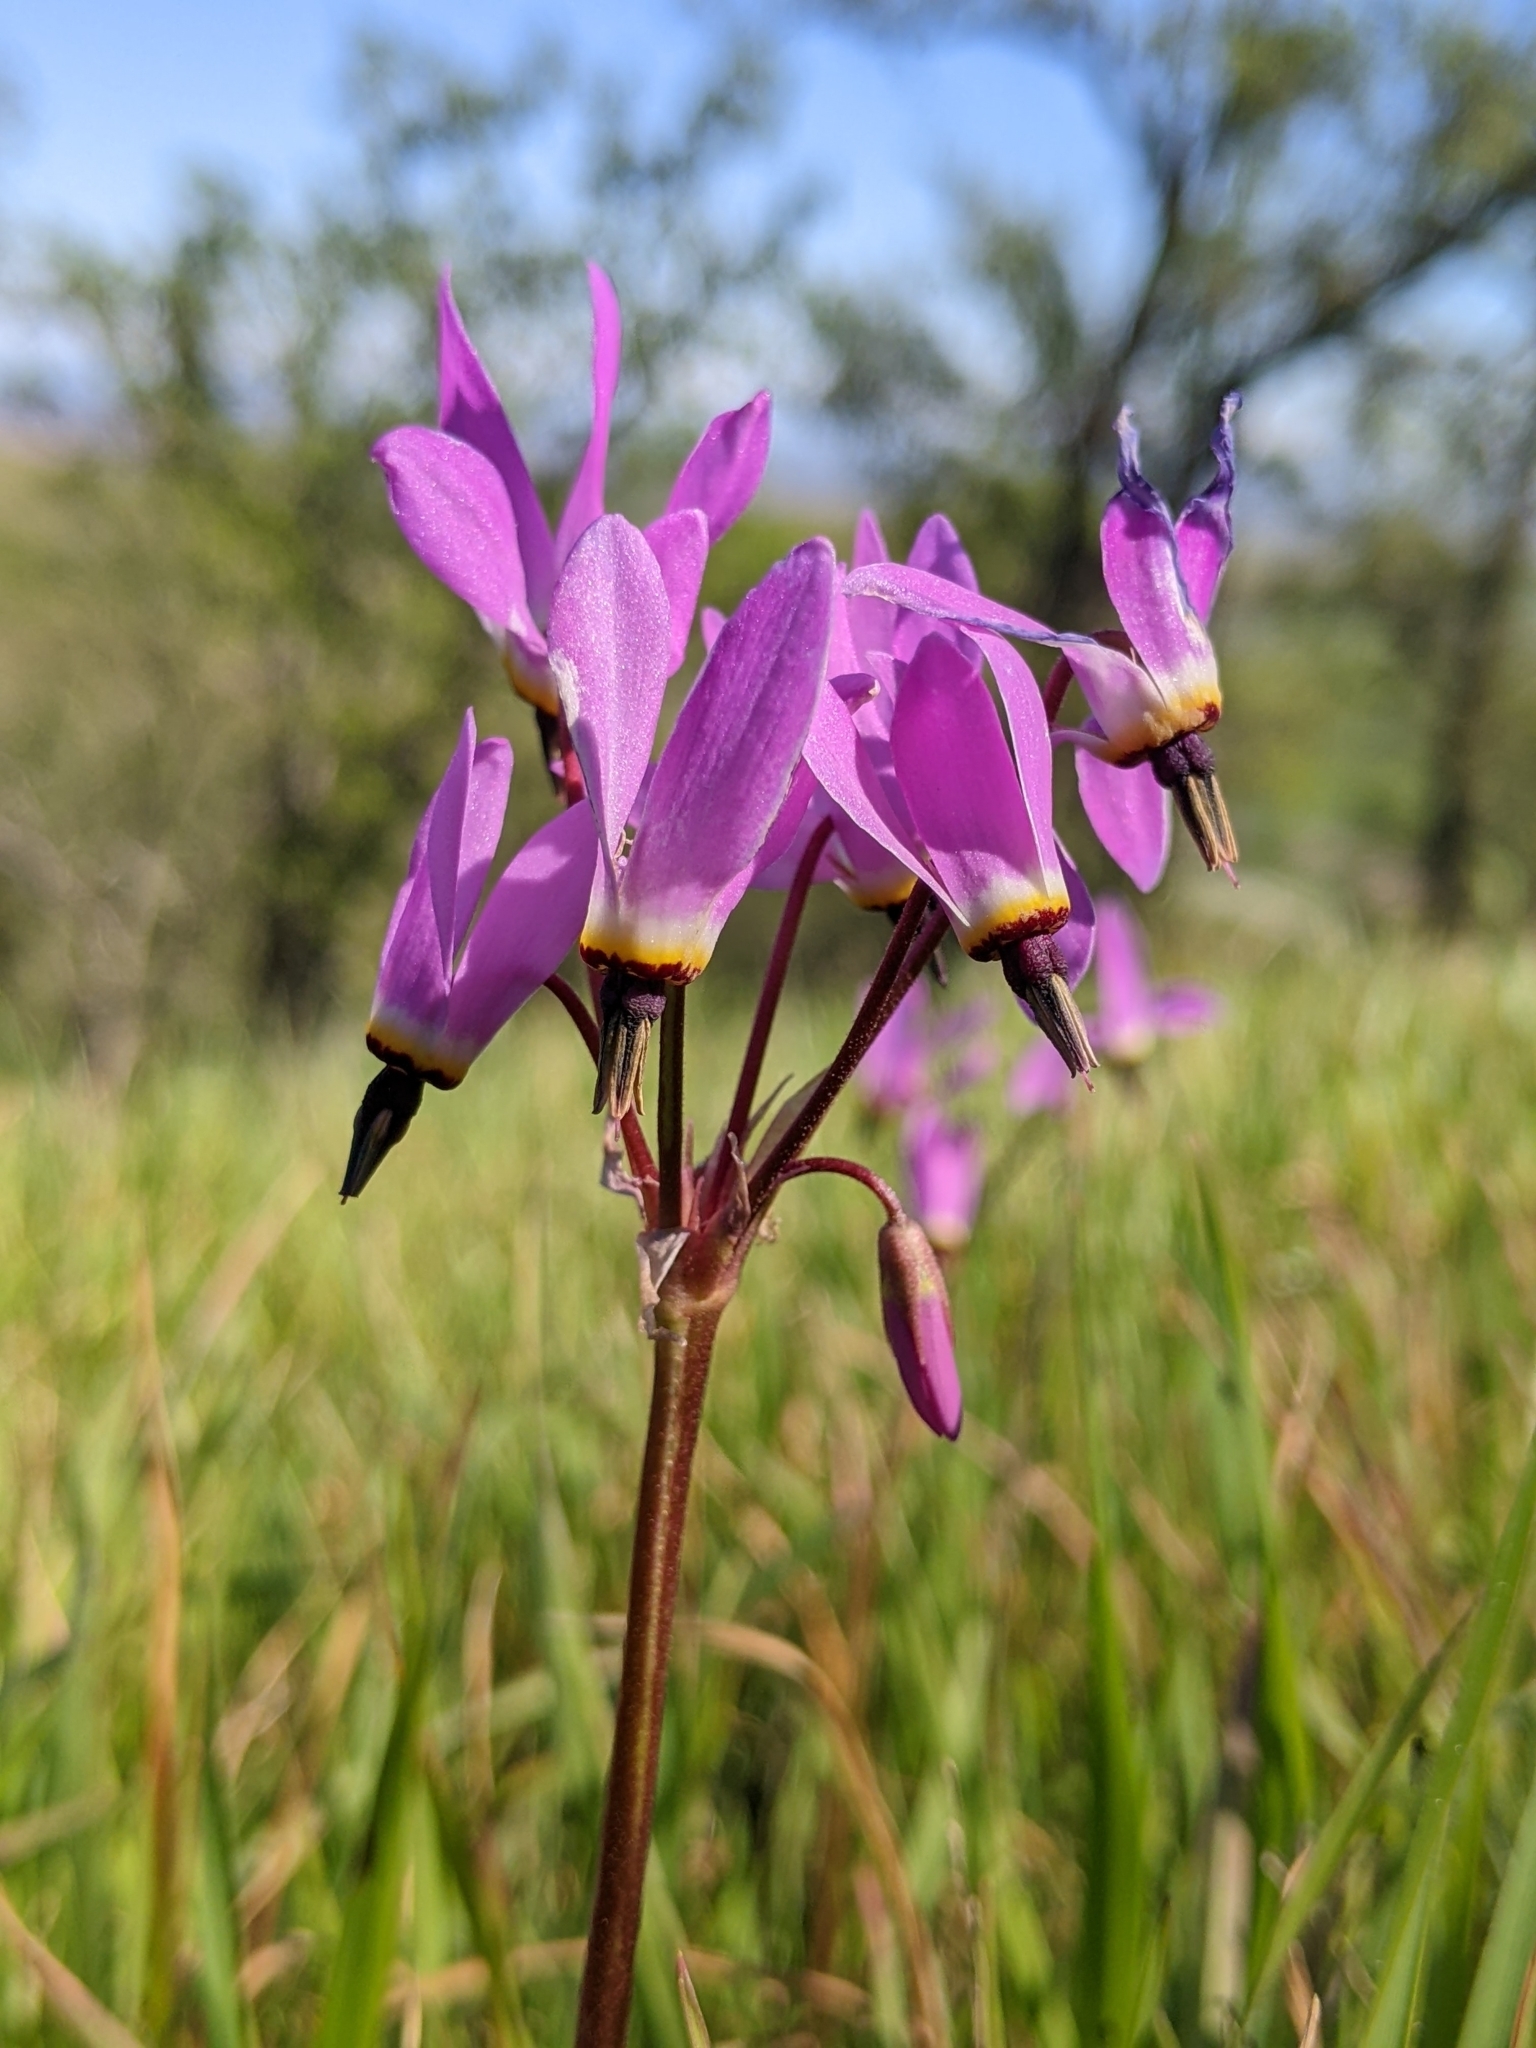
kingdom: Plantae
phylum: Tracheophyta
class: Magnoliopsida
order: Ericales
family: Primulaceae
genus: Dodecatheon
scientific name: Dodecatheon hendersonii
